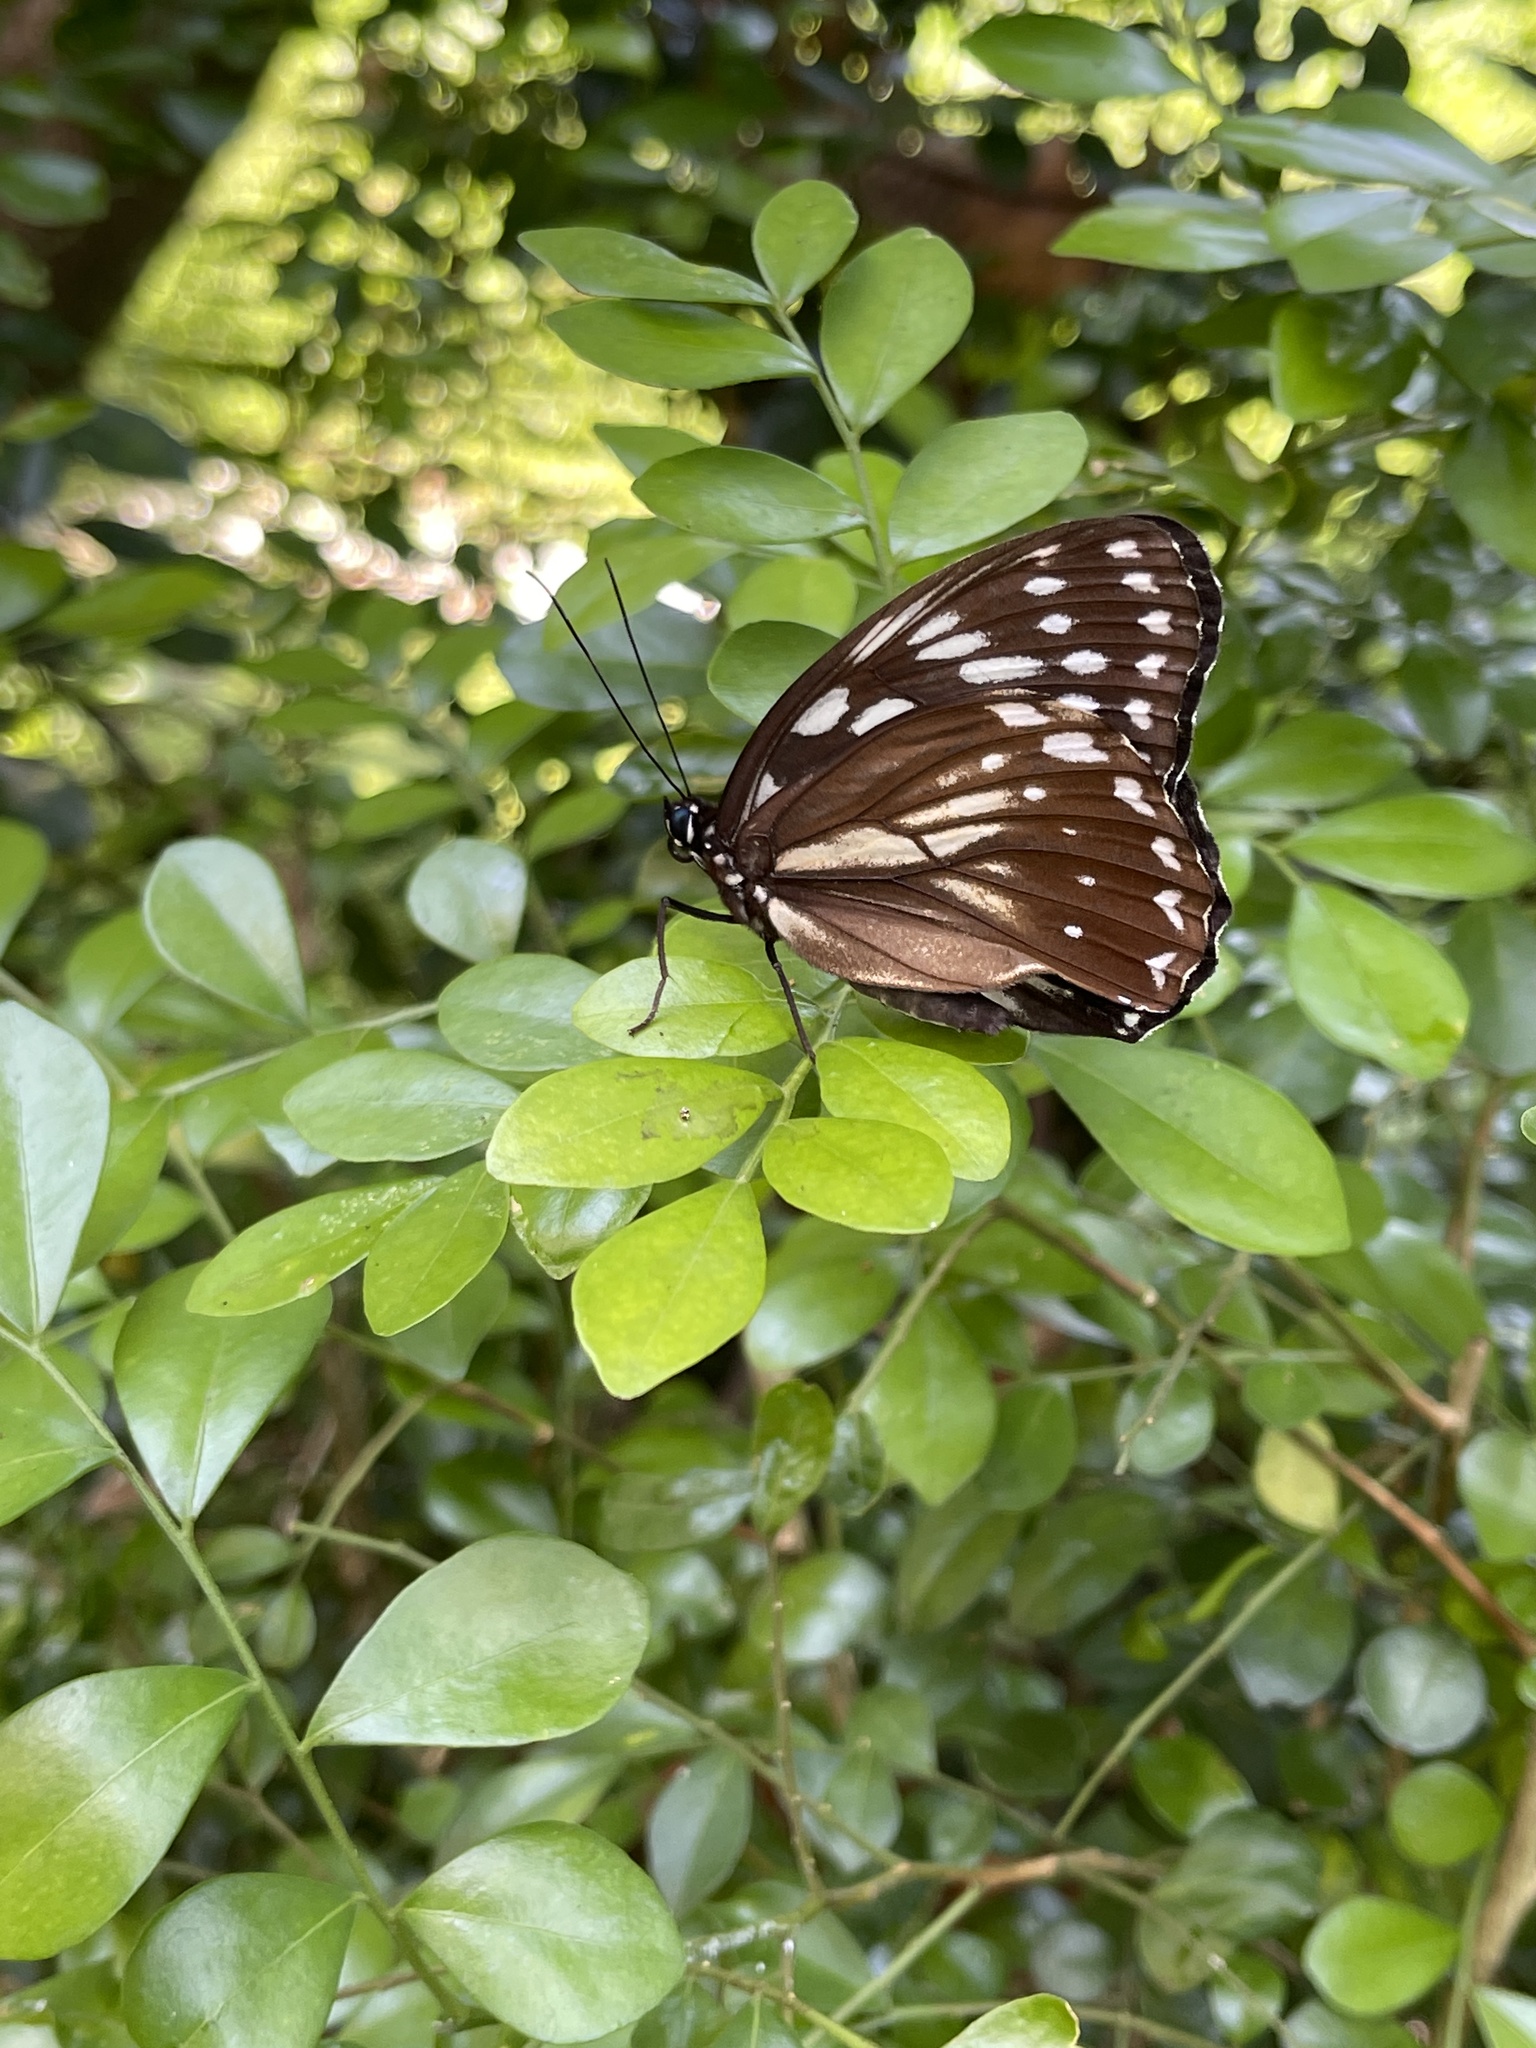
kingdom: Animalia
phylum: Arthropoda
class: Insecta
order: Lepidoptera
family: Nymphalidae
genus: Penthema
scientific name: Penthema formosanum
